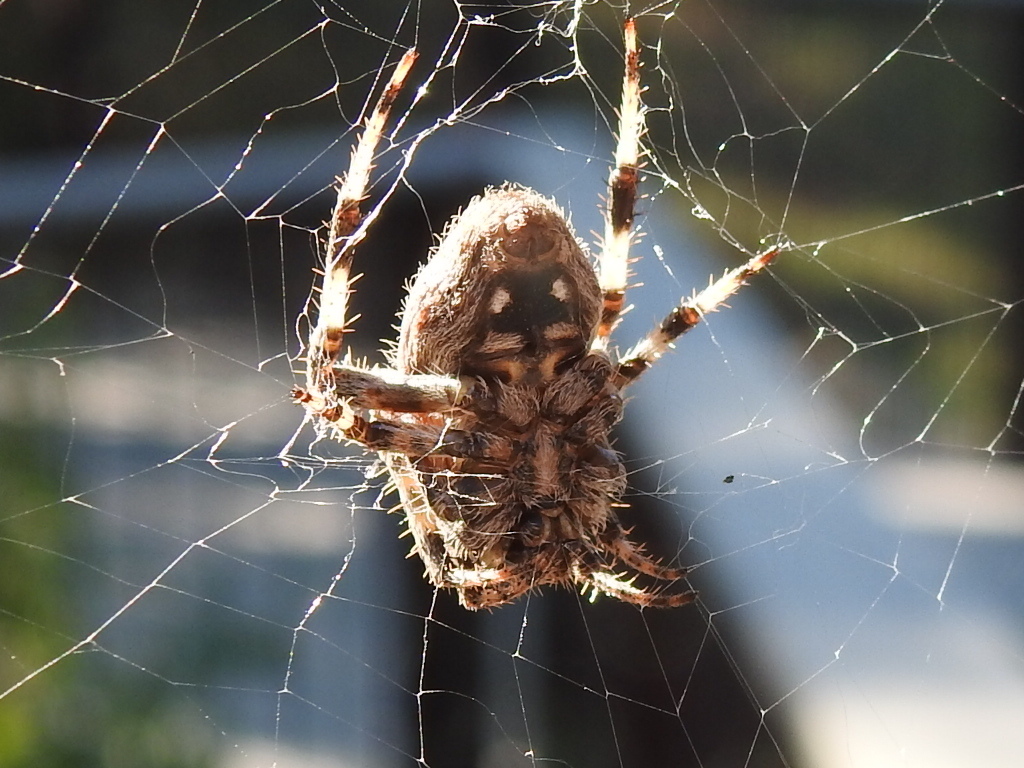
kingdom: Animalia
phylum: Arthropoda
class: Arachnida
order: Araneae
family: Araneidae
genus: Neoscona
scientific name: Neoscona crucifera
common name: Spotted orbweaver
